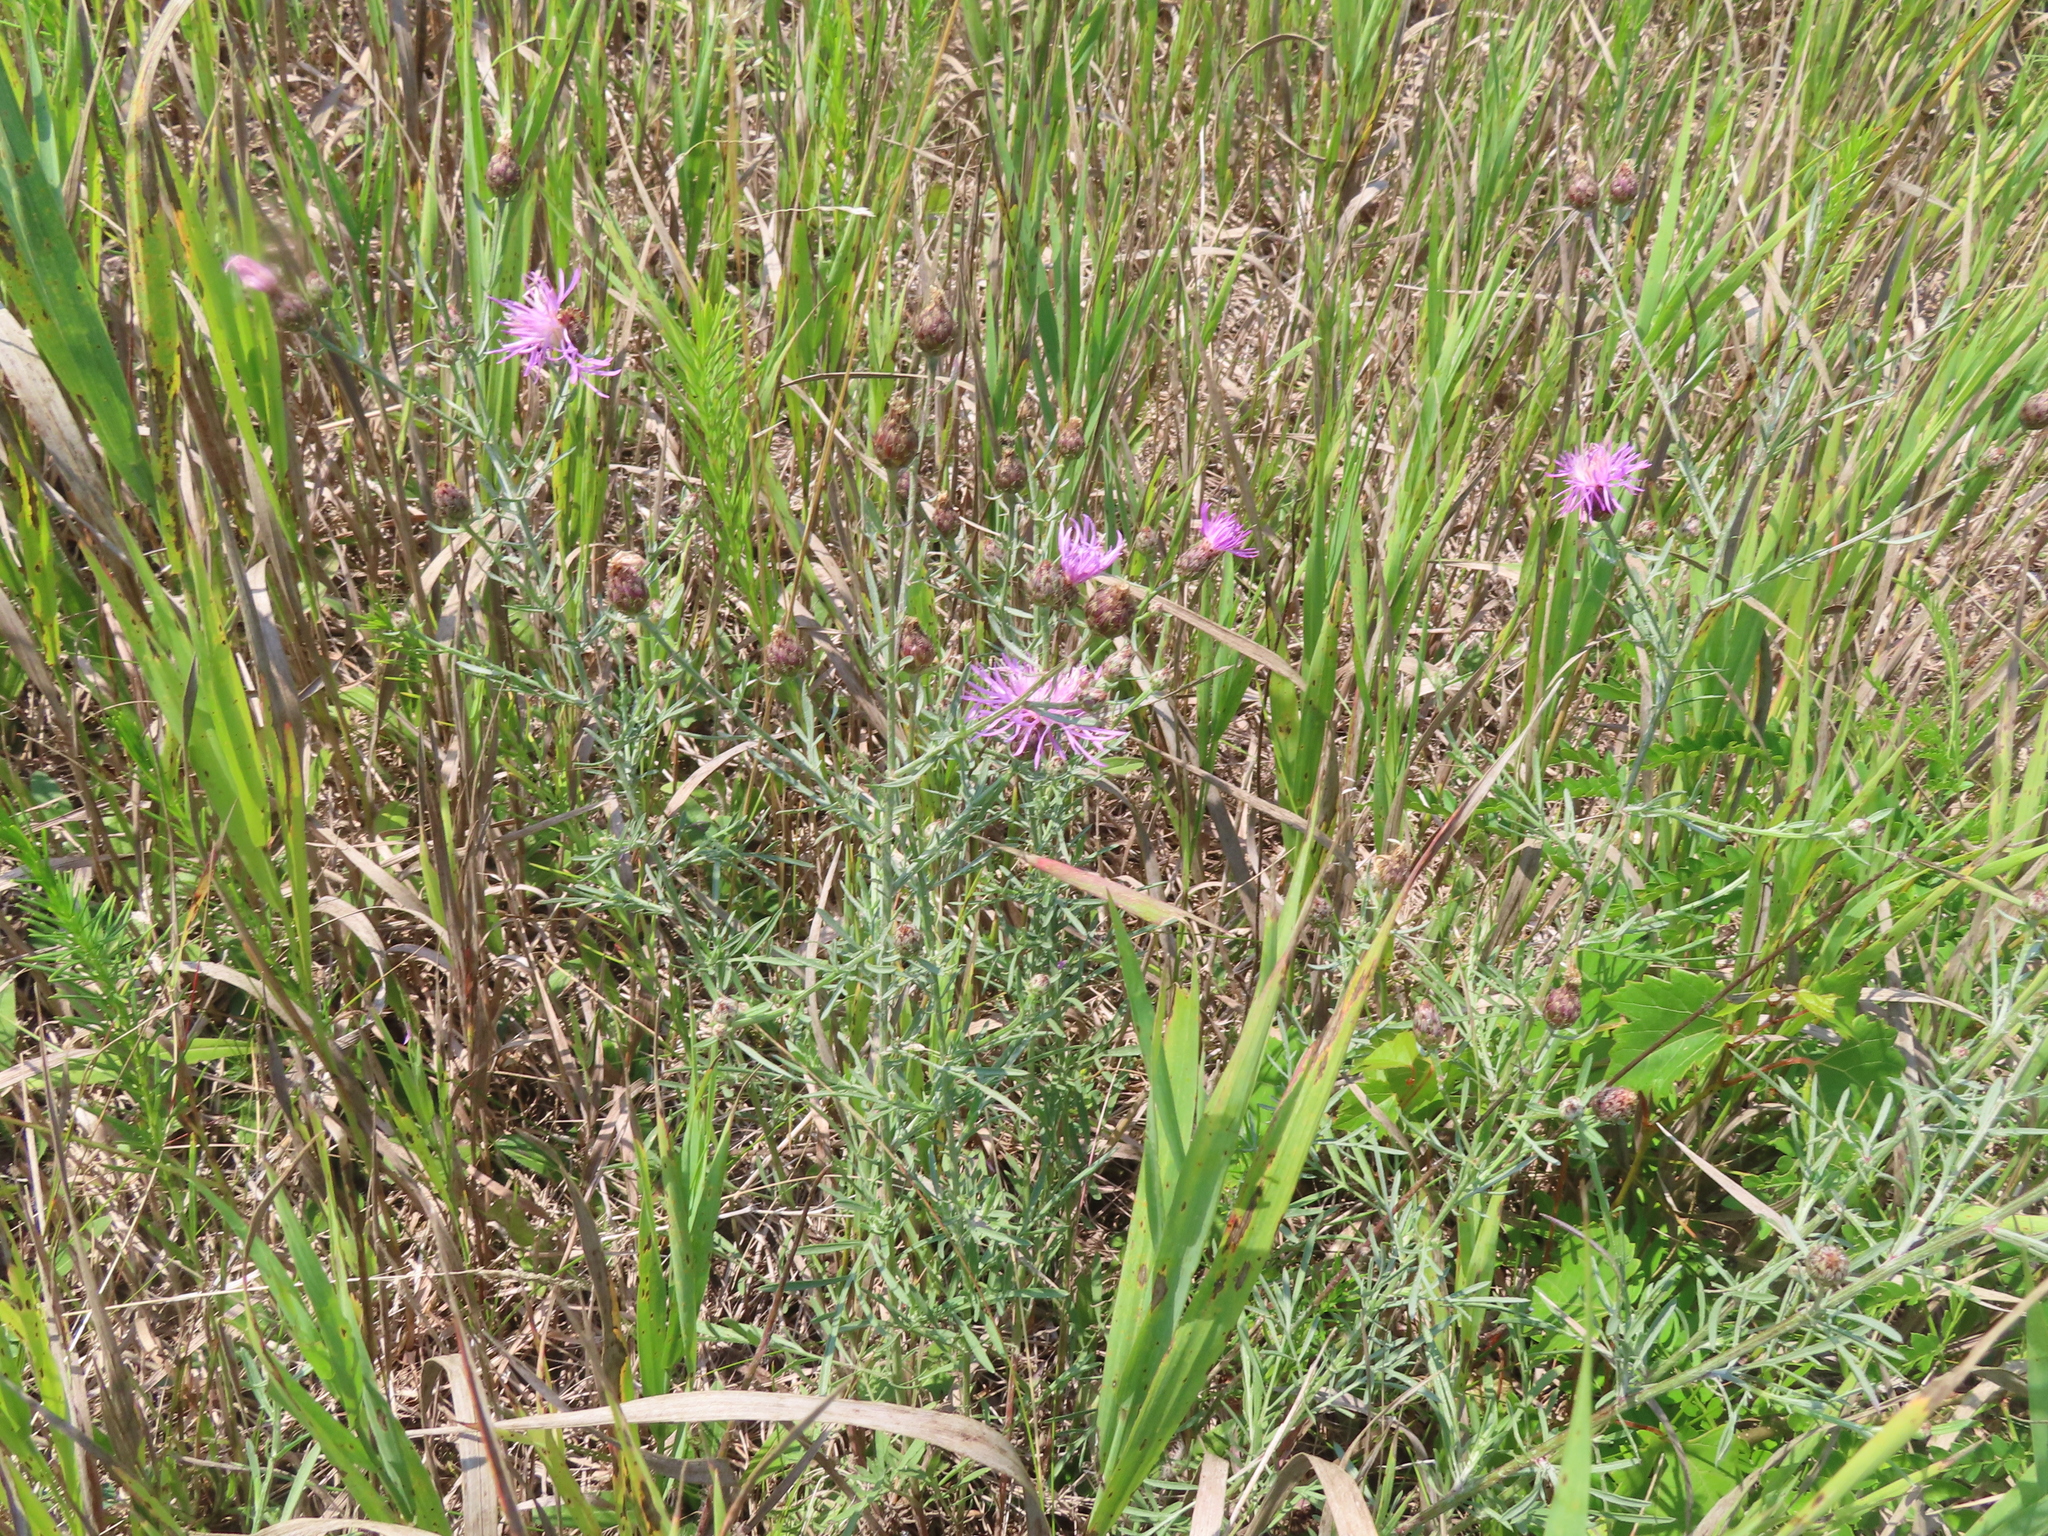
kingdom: Plantae
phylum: Tracheophyta
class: Magnoliopsida
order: Asterales
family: Asteraceae
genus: Centaurea
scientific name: Centaurea stoebe
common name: Spotted knapweed
